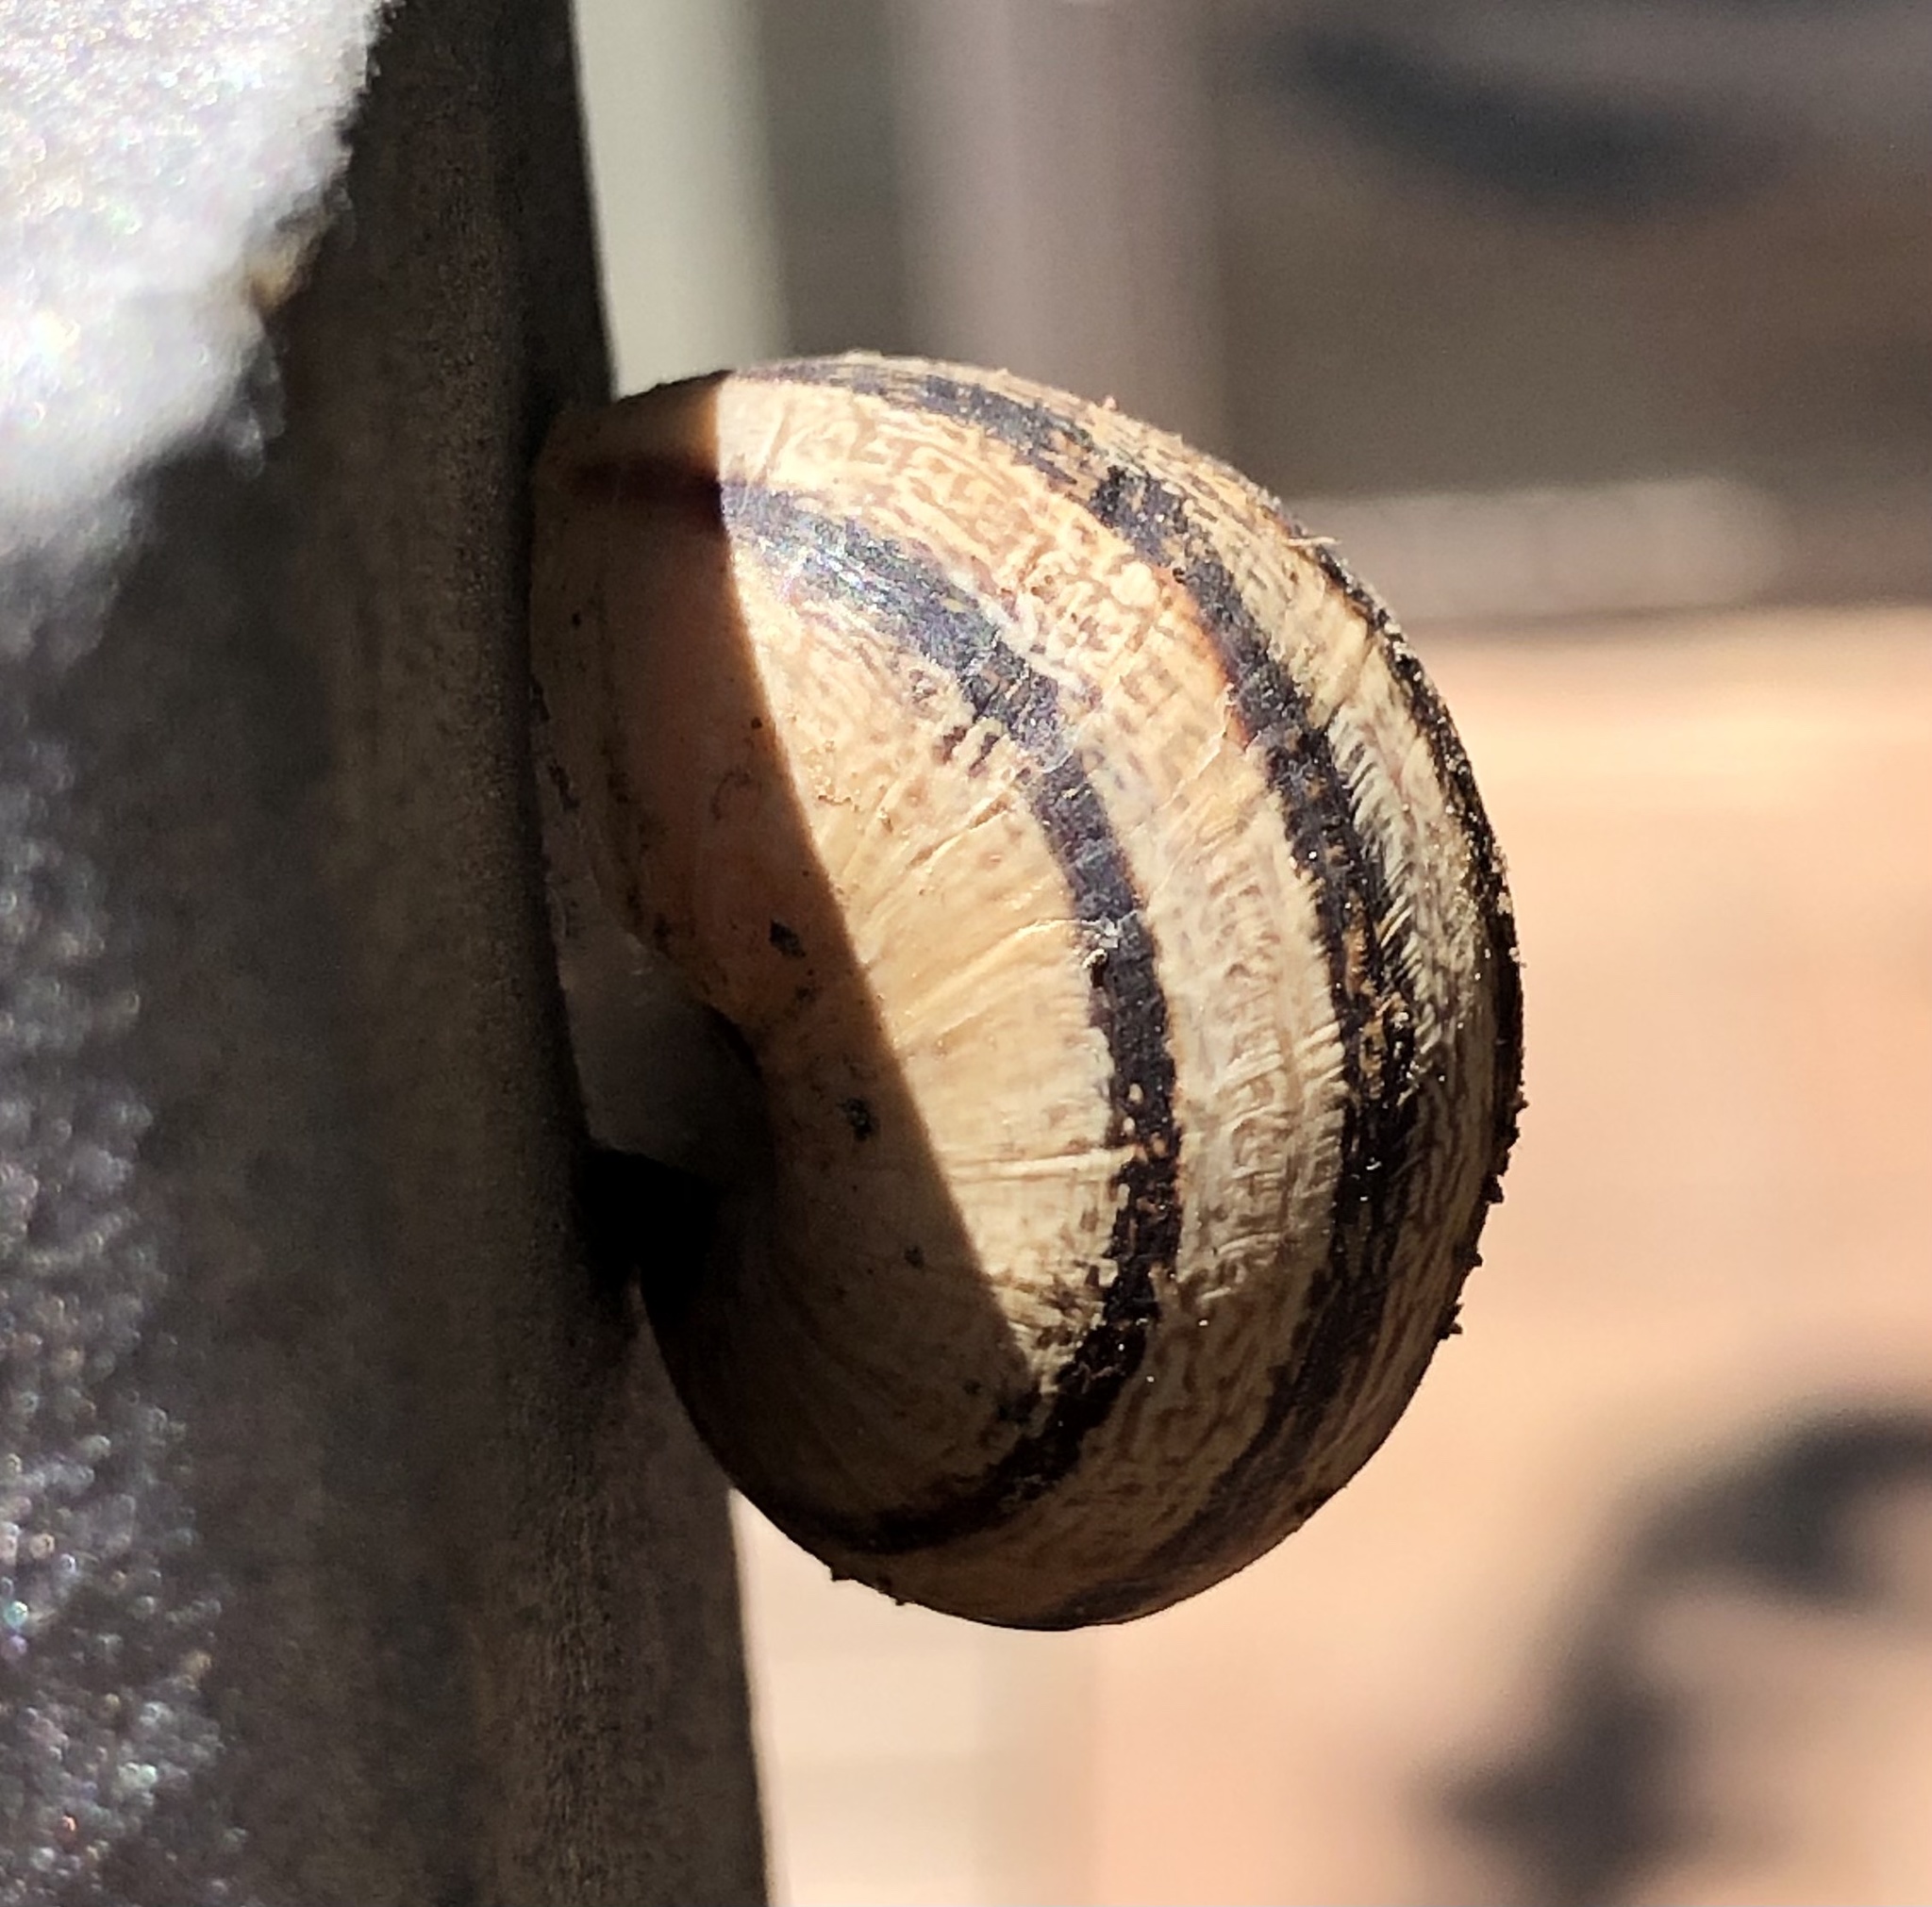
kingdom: Animalia
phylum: Mollusca
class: Gastropoda
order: Stylommatophora
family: Helicidae
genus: Eobania
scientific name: Eobania vermiculata
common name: Chocolateband snail
